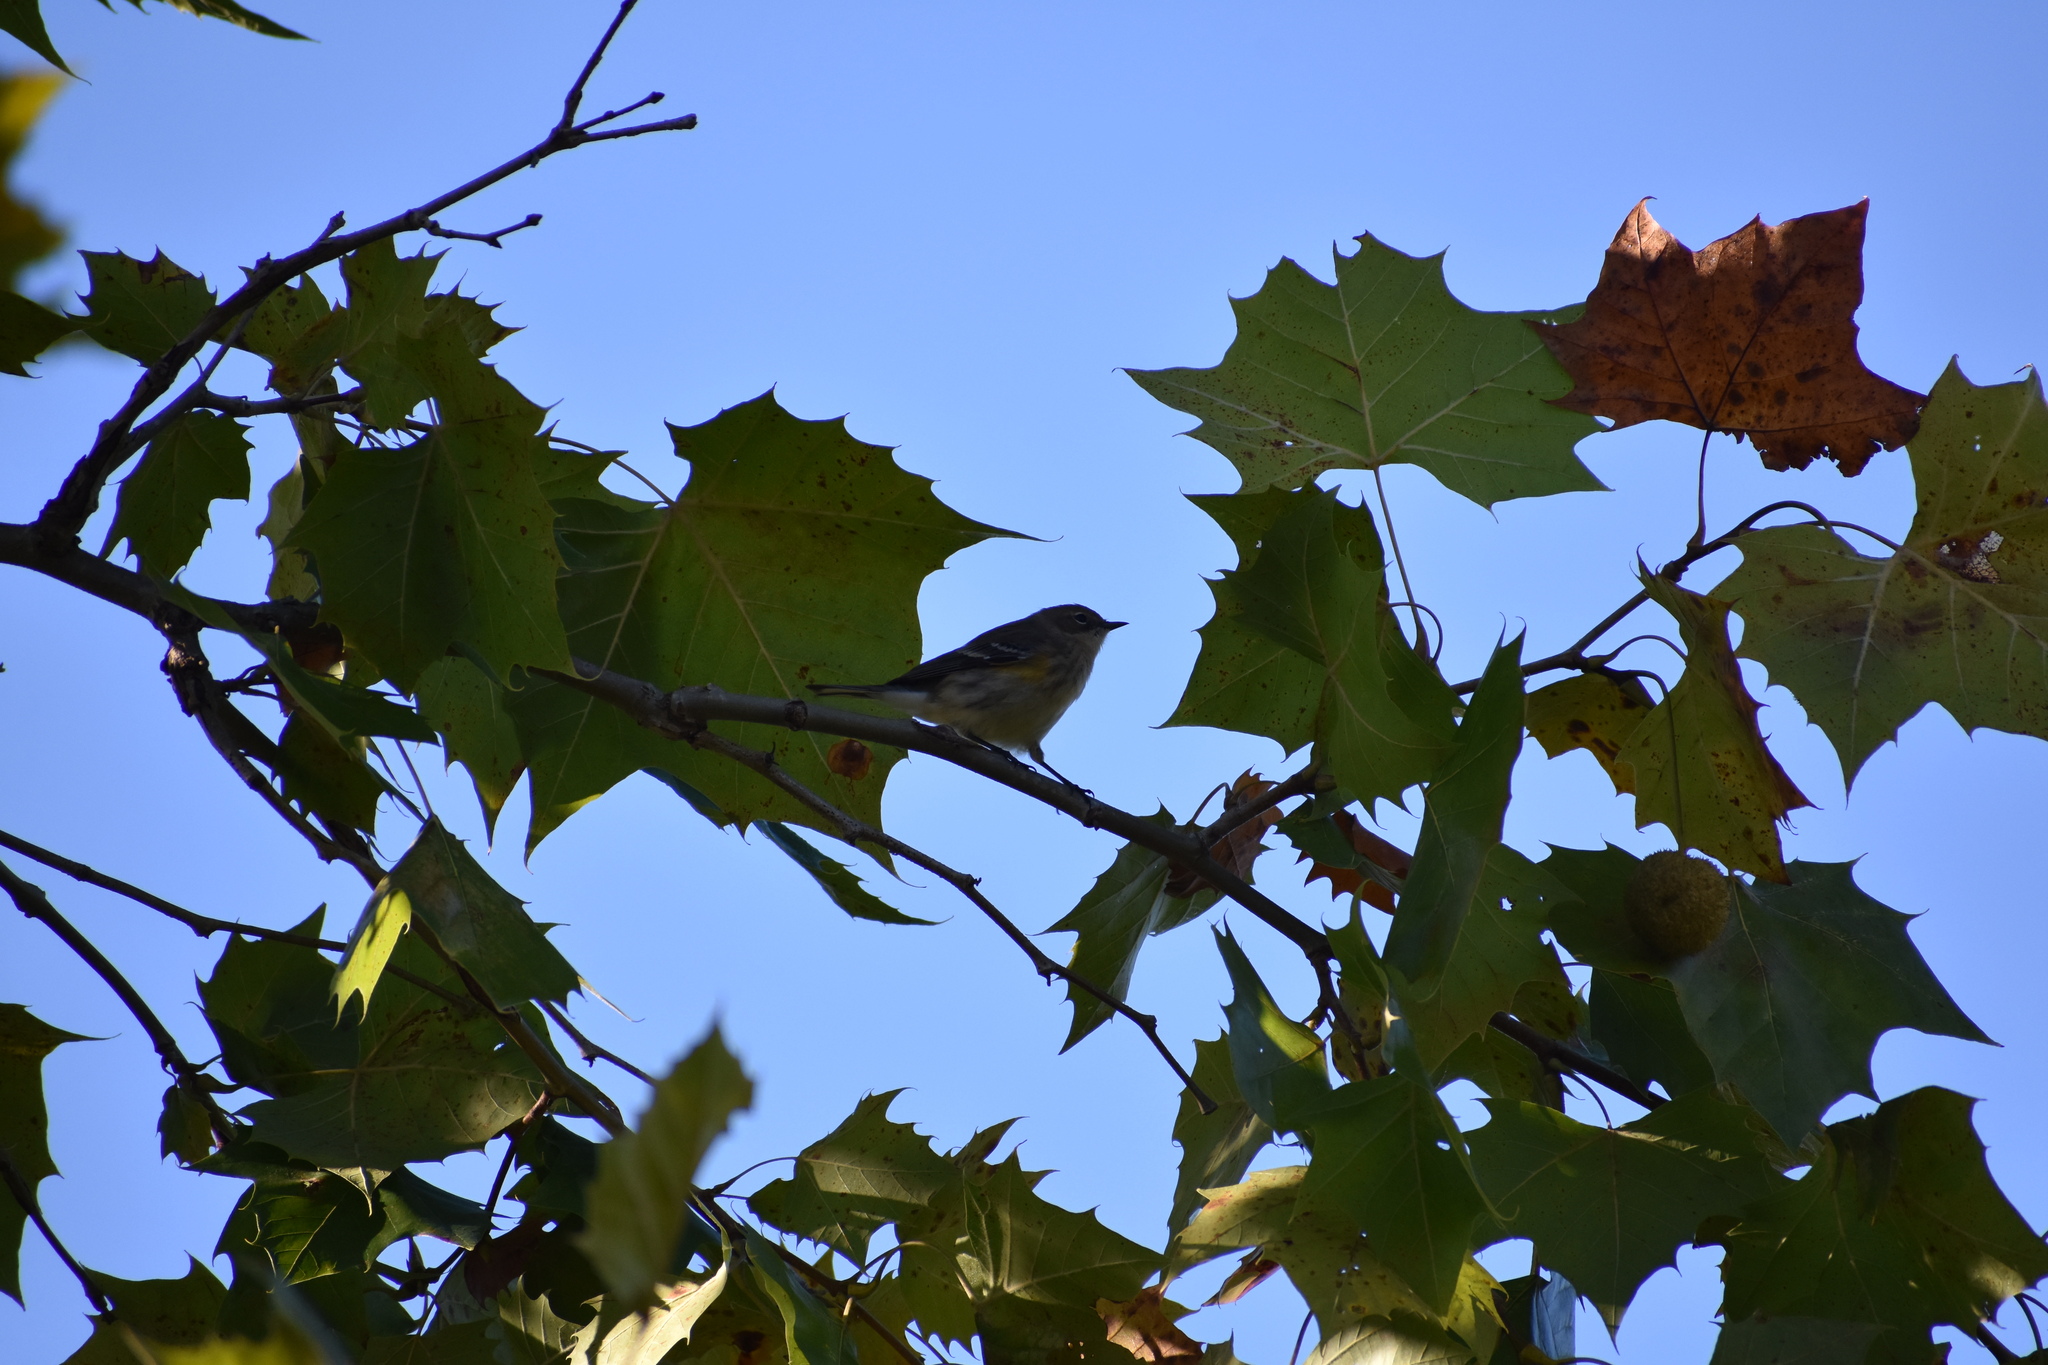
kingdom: Animalia
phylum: Chordata
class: Aves
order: Passeriformes
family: Parulidae
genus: Setophaga
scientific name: Setophaga coronata
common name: Myrtle warbler
